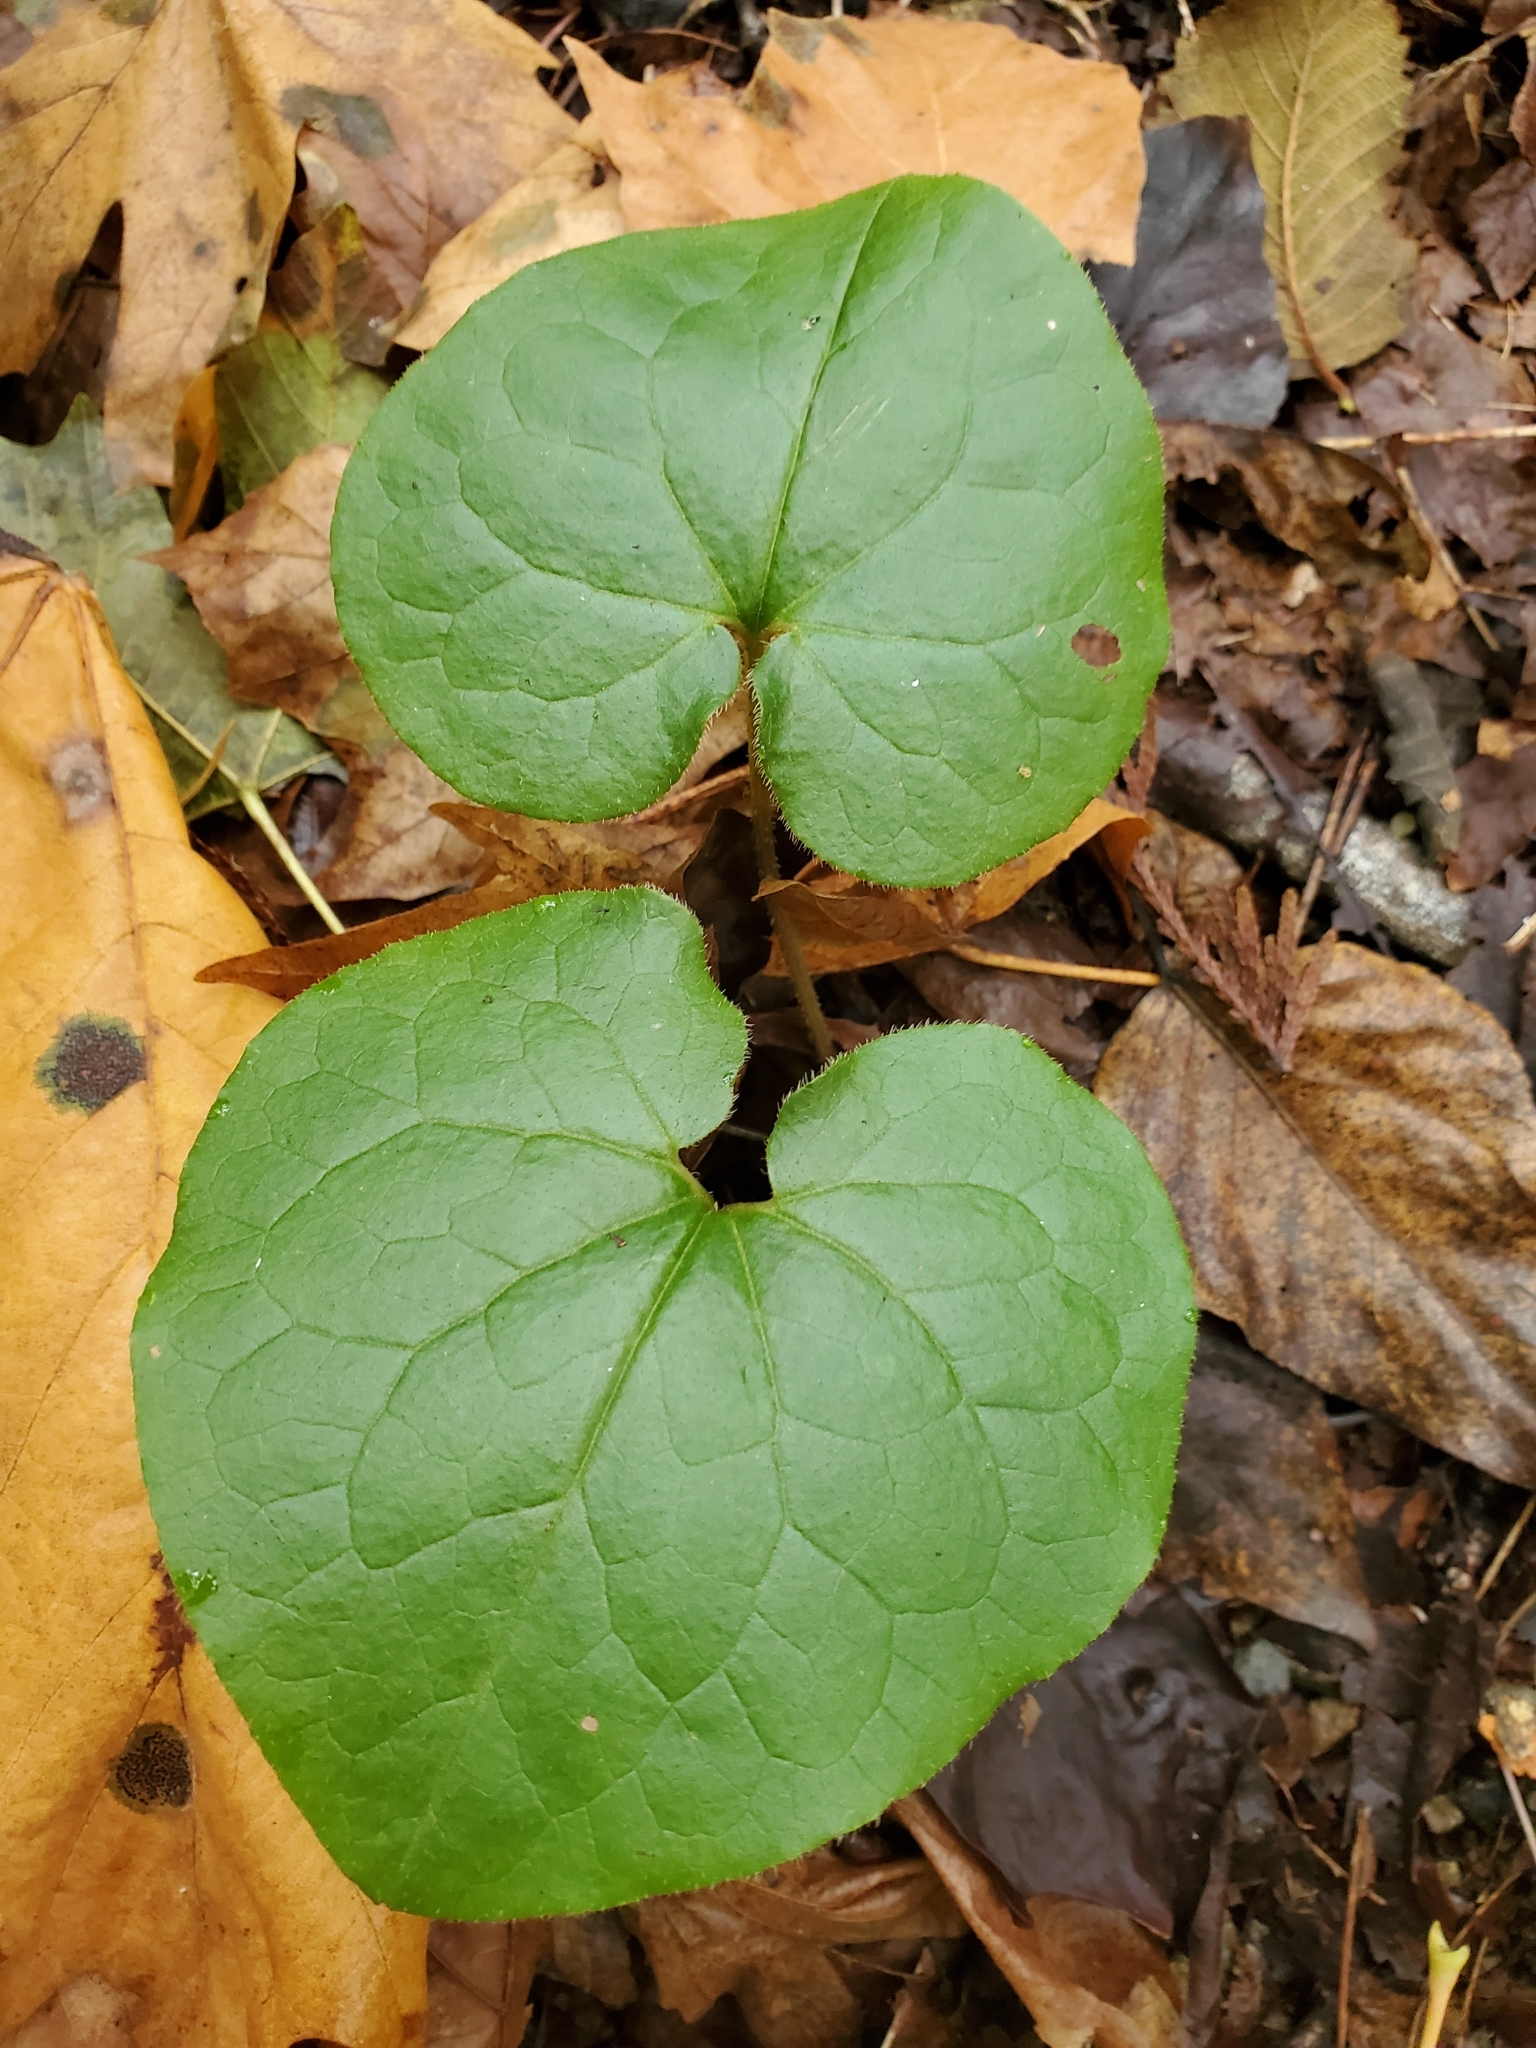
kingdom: Plantae
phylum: Tracheophyta
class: Magnoliopsida
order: Piperales
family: Aristolochiaceae
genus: Asarum
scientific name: Asarum caudatum
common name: Wild ginger
